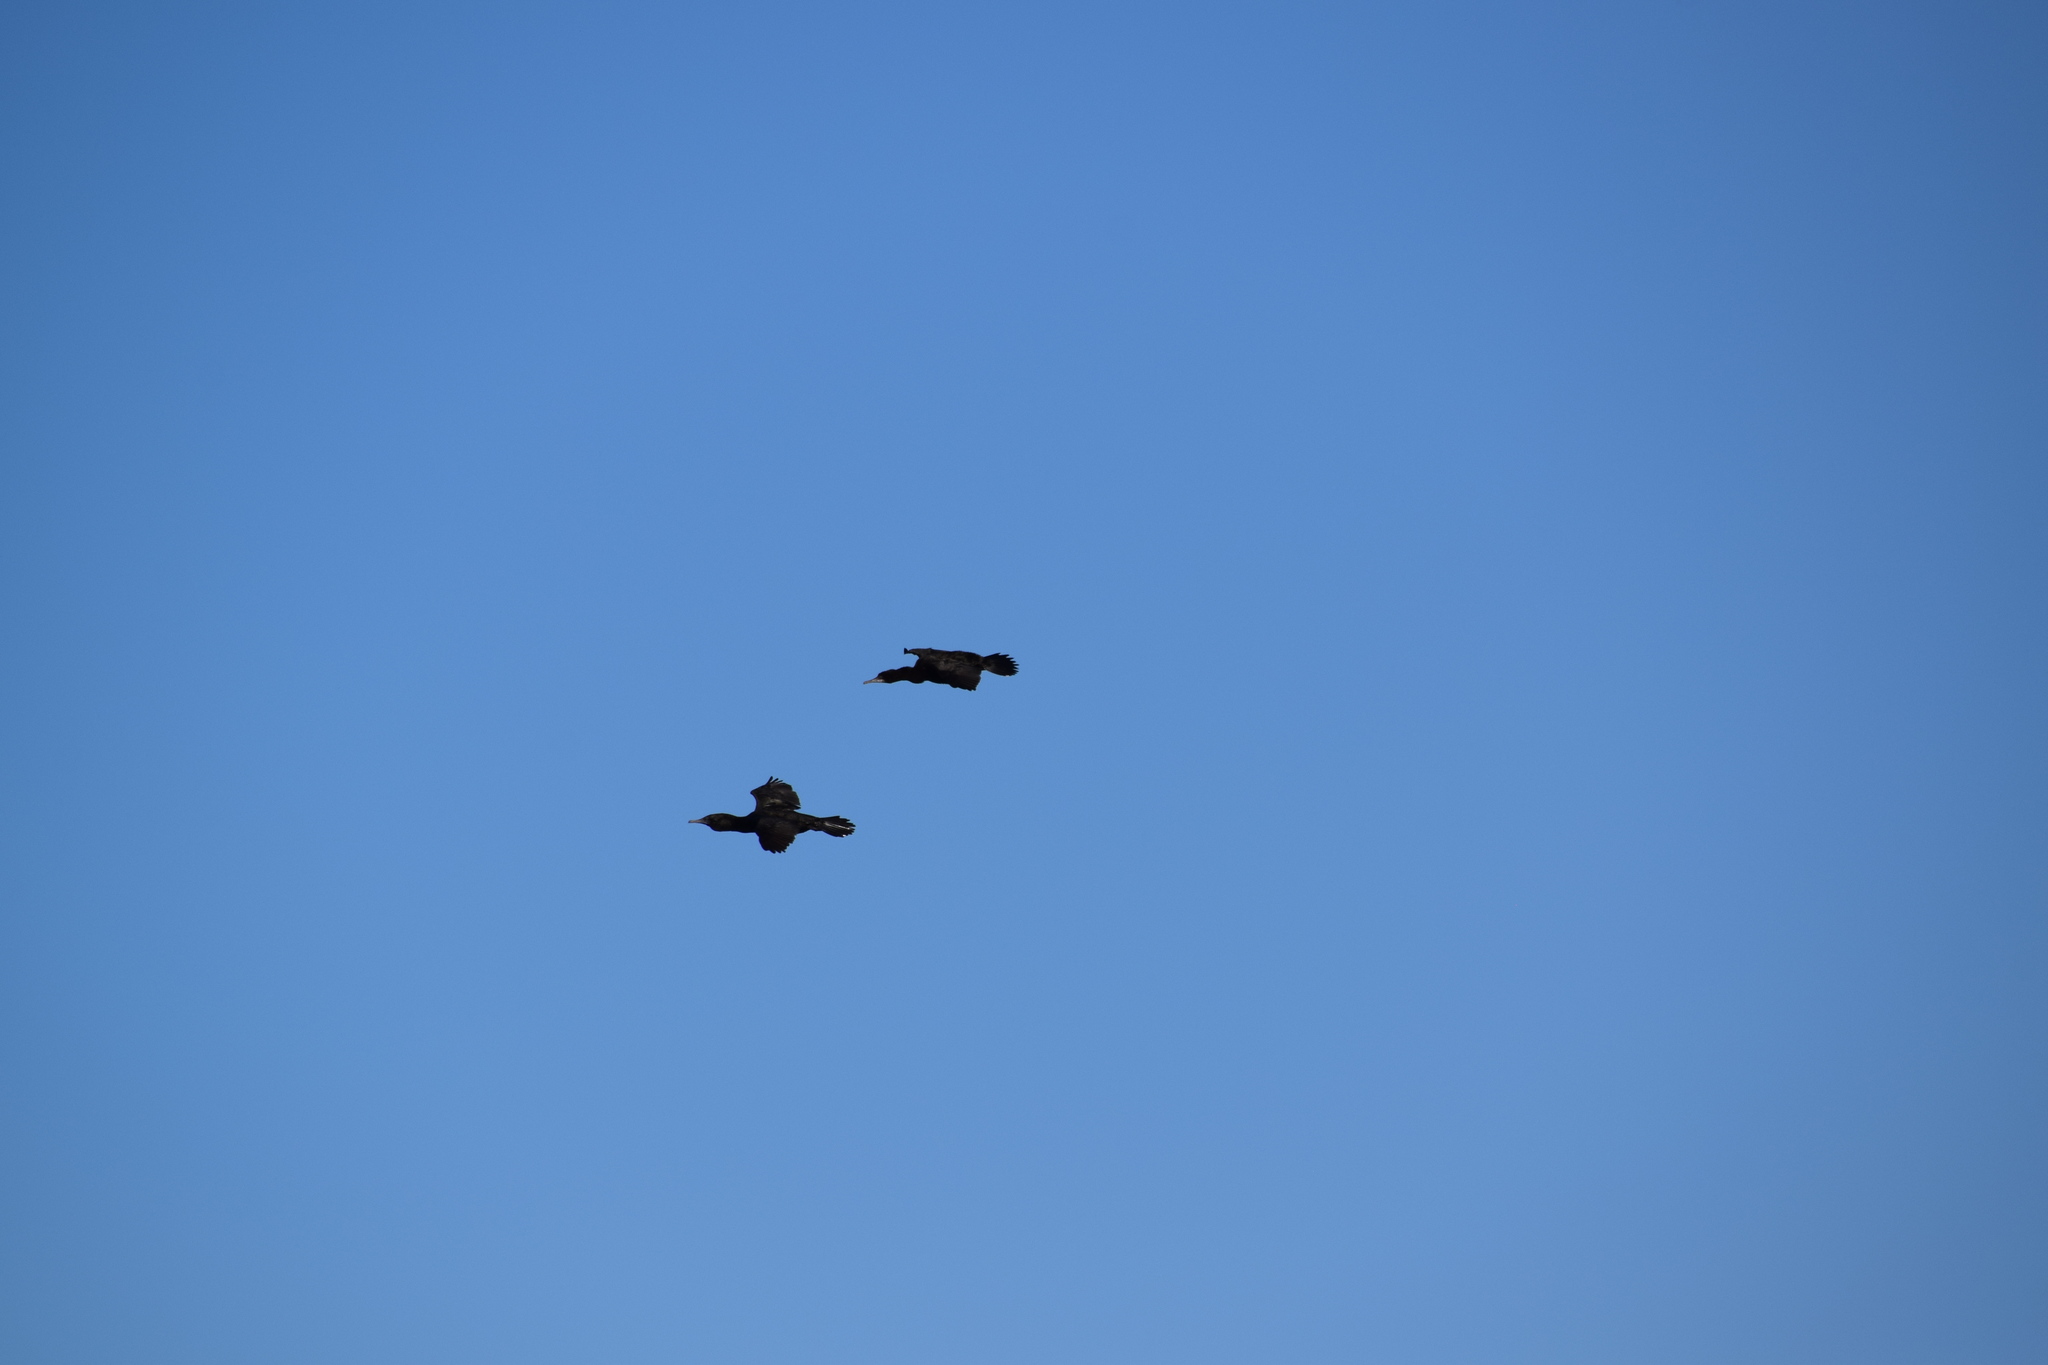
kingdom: Animalia
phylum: Chordata
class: Aves
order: Suliformes
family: Phalacrocoracidae
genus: Phalacrocorax
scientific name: Phalacrocorax sulcirostris
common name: Little black cormorant
